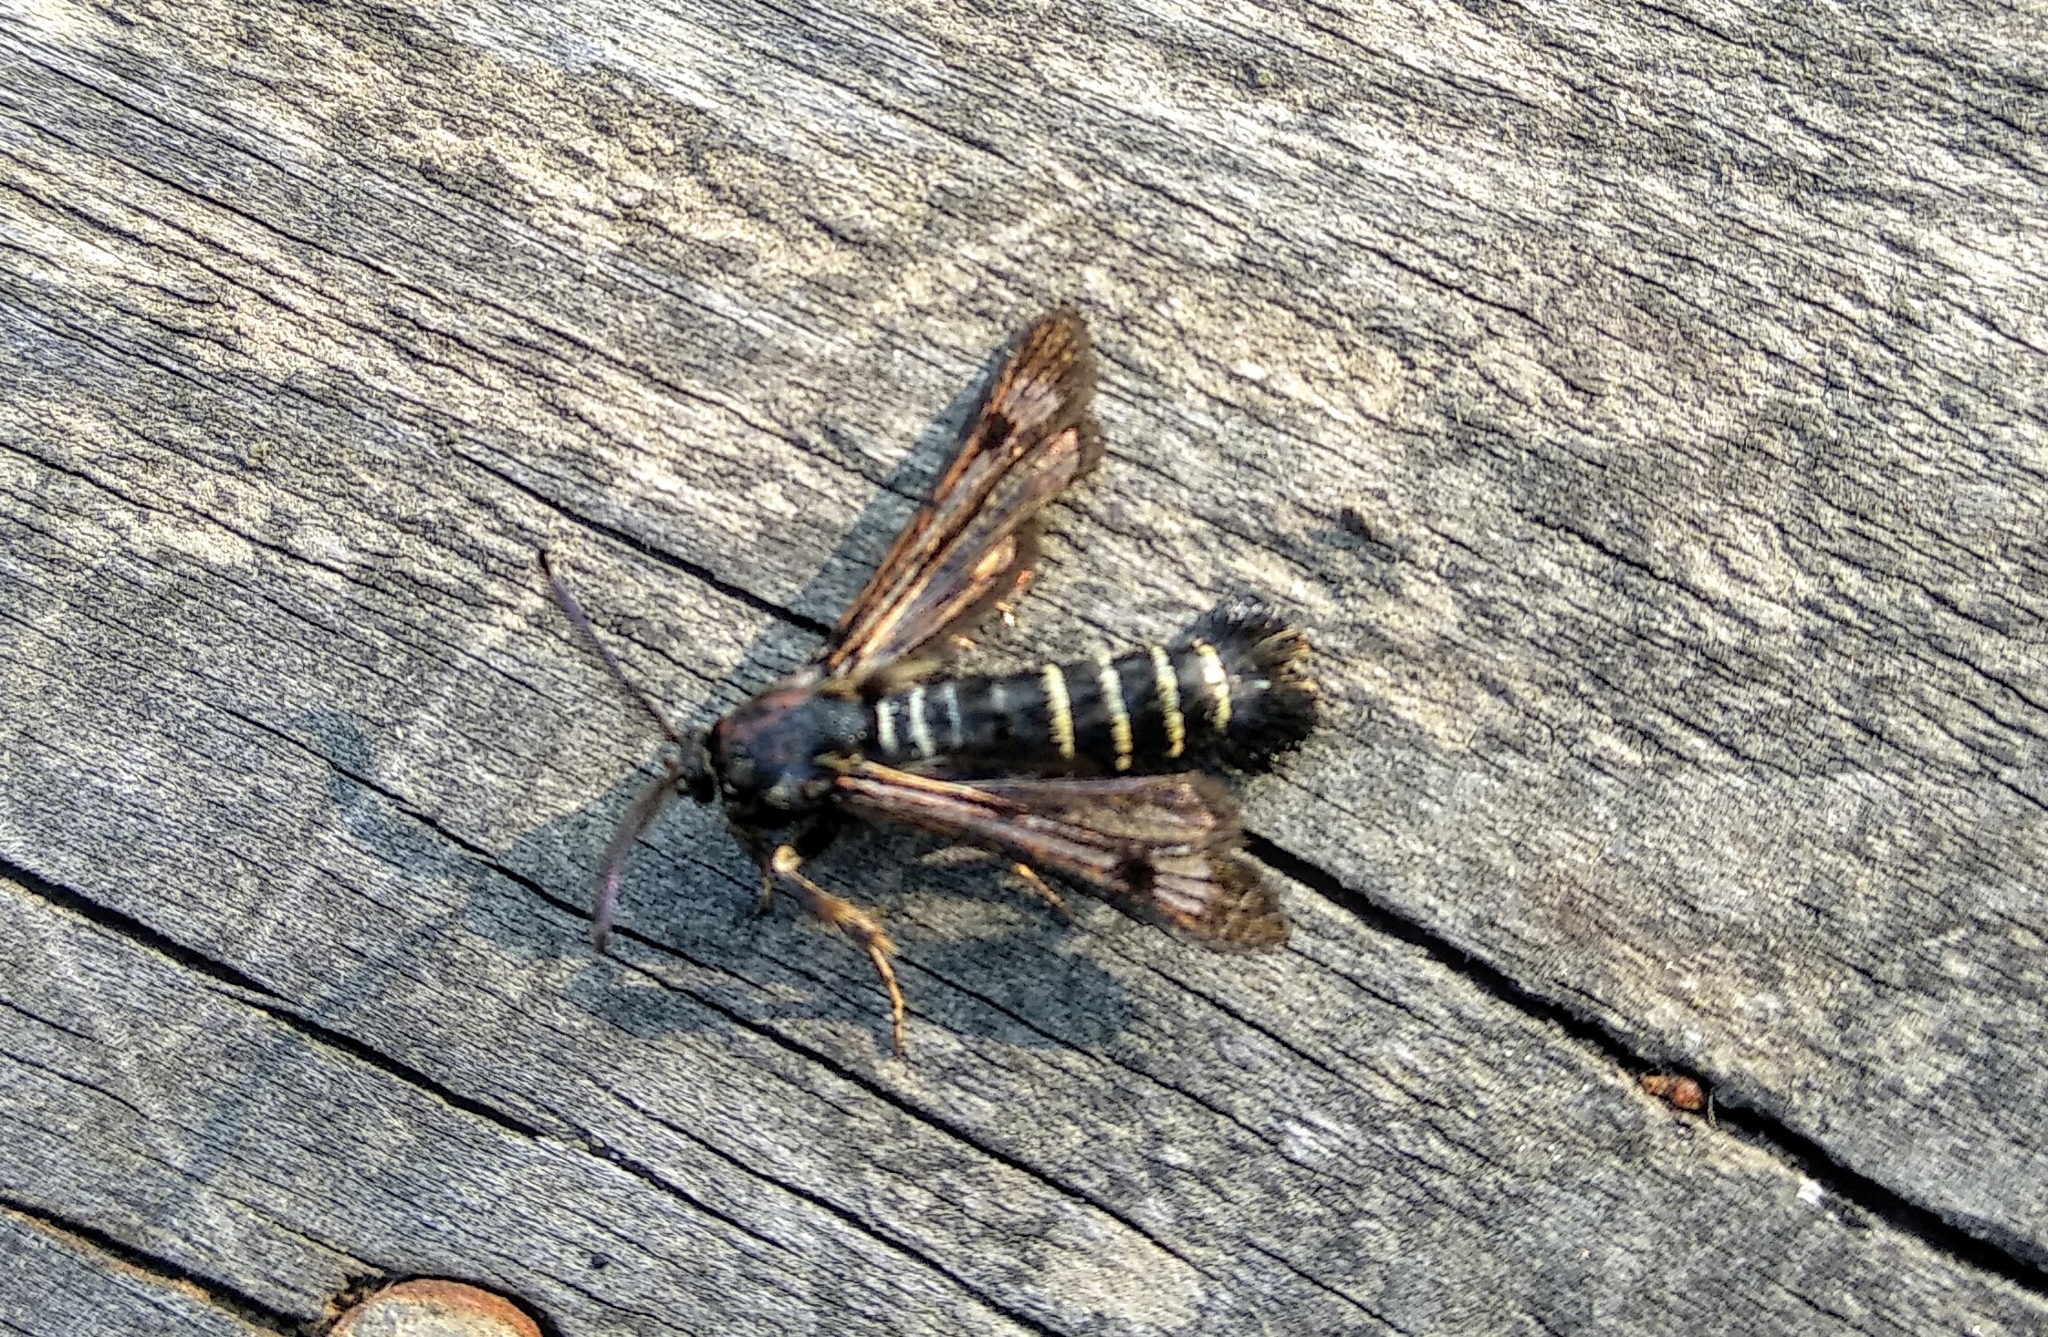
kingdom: Animalia
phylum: Arthropoda
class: Insecta
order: Lepidoptera
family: Sesiidae
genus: Pennisetia
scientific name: Pennisetia hylaeiformis
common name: Raspberry clearwing
